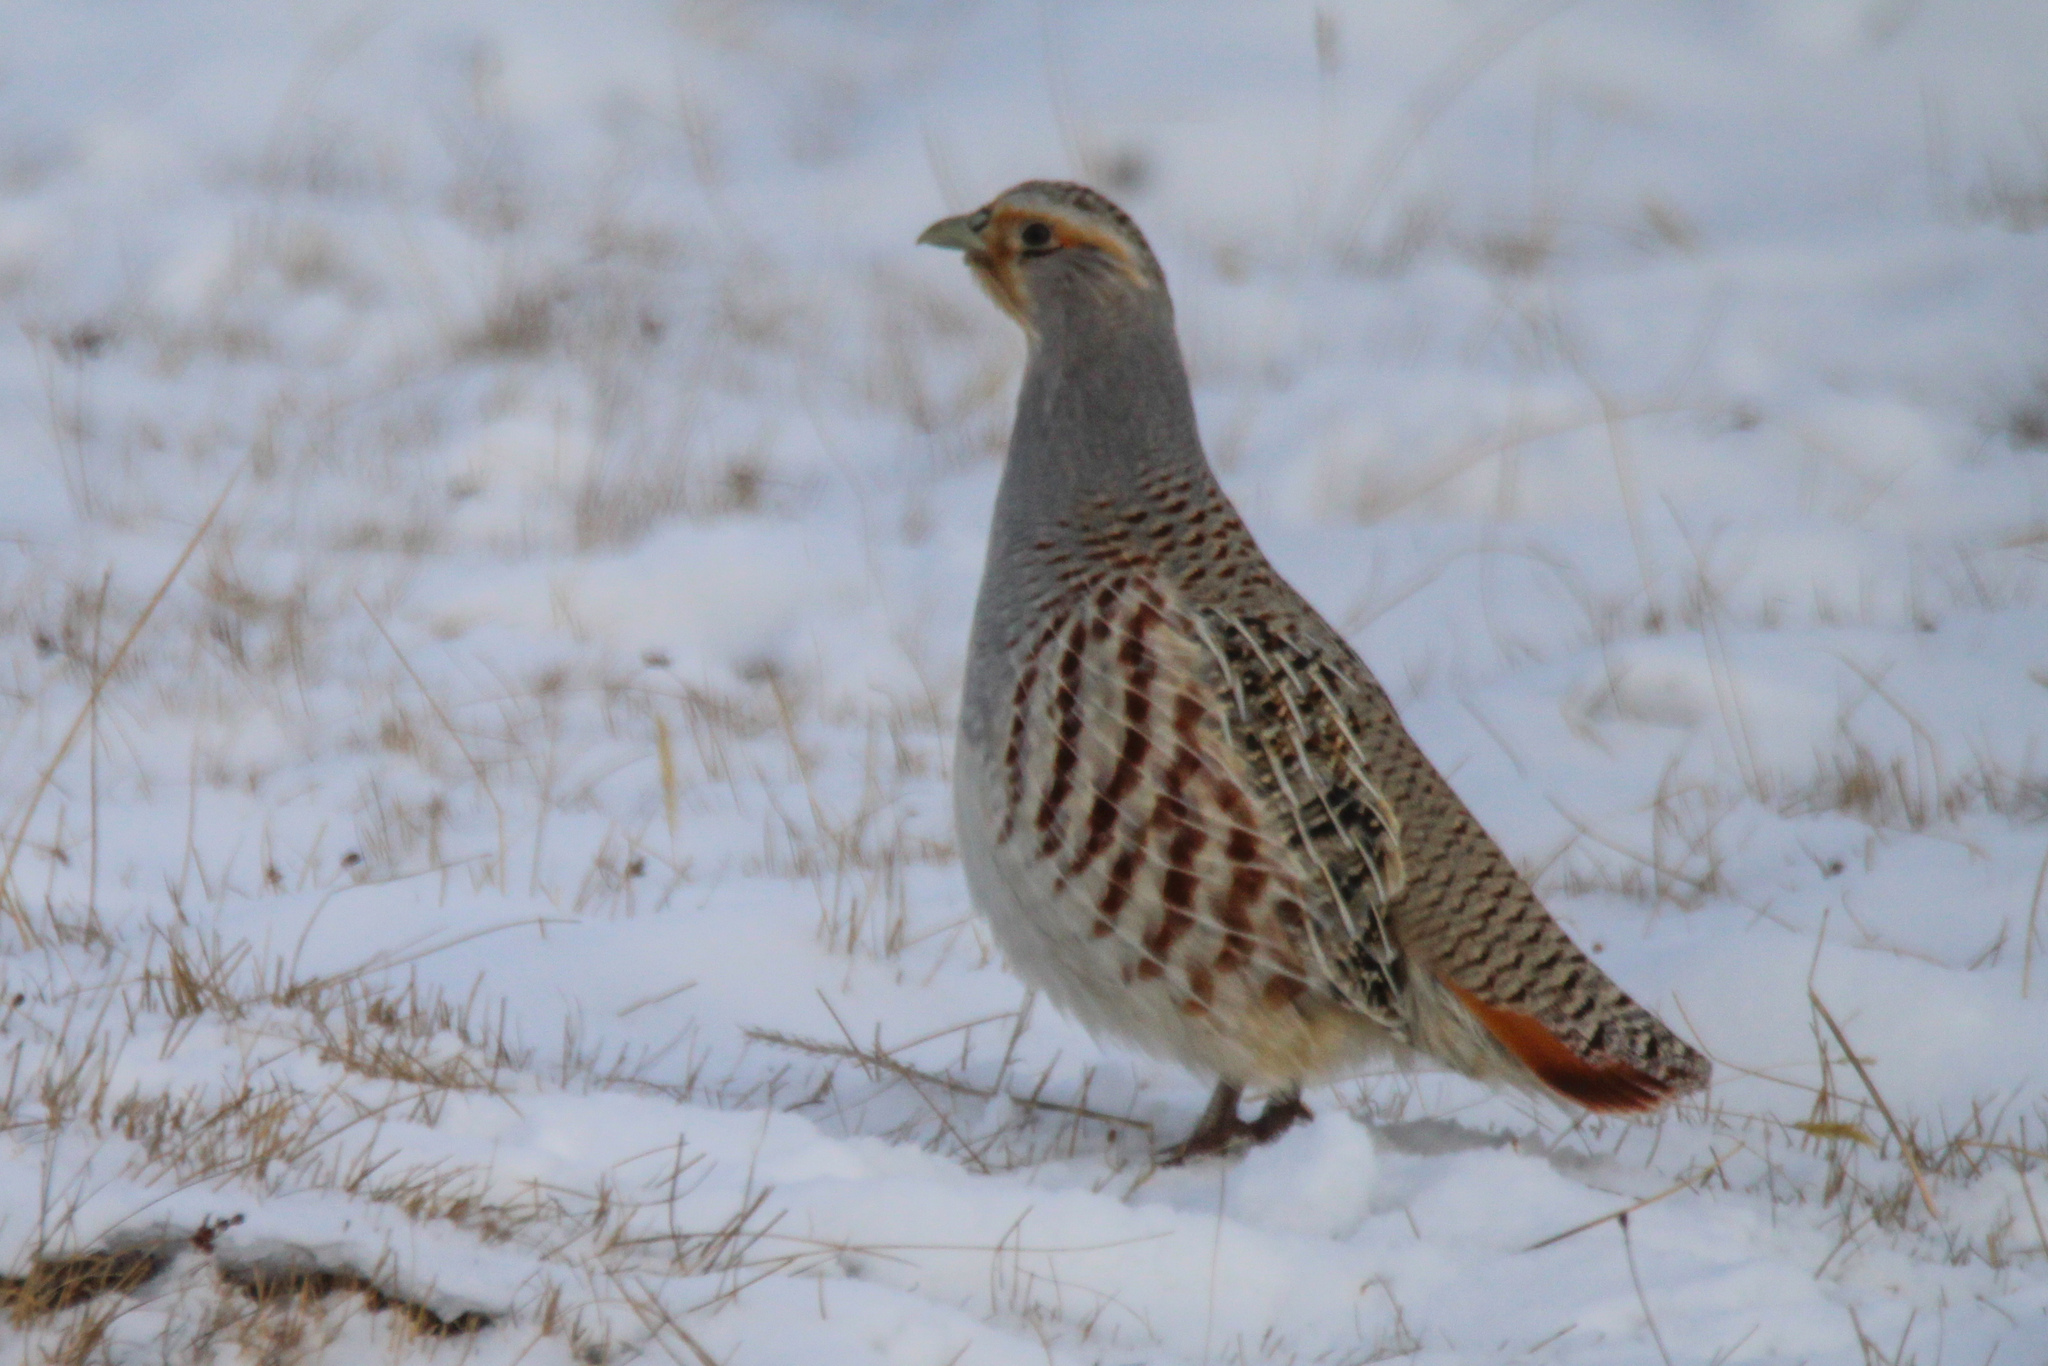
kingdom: Animalia
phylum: Chordata
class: Aves
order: Galliformes
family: Phasianidae
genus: Perdix
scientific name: Perdix dauurica
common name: Daurian partridge
